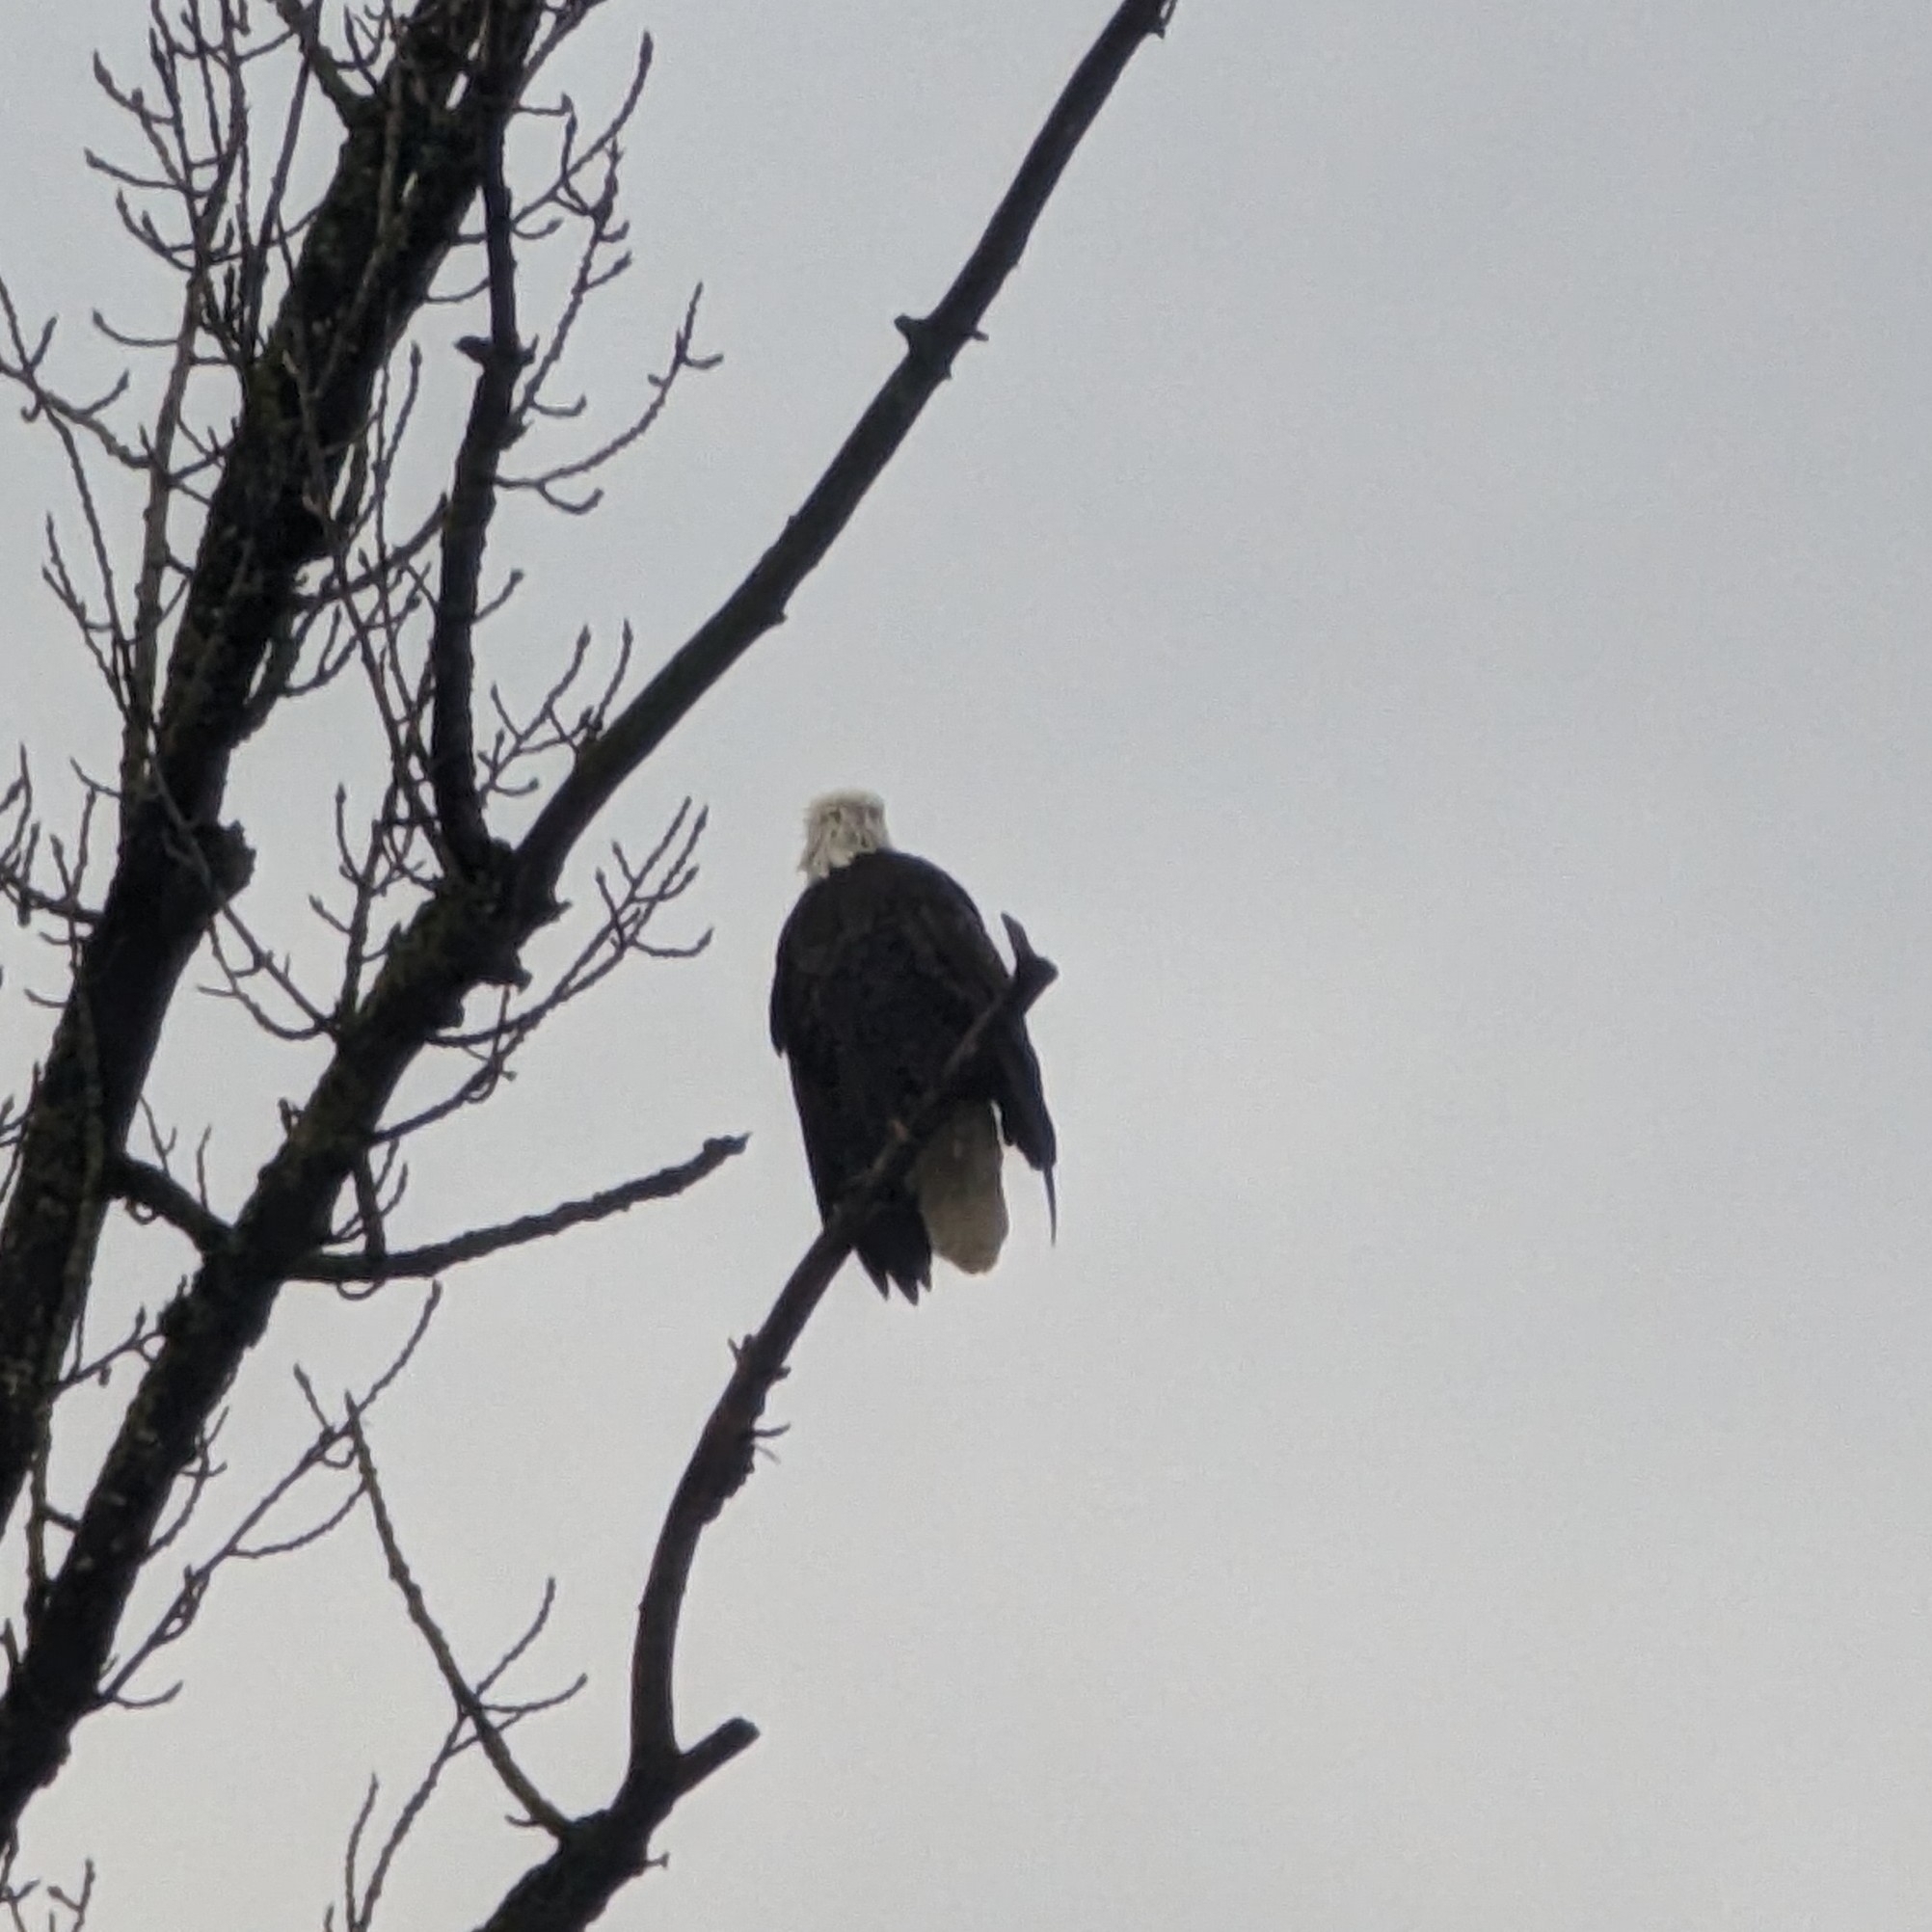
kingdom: Animalia
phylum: Chordata
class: Aves
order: Accipitriformes
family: Accipitridae
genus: Haliaeetus
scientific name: Haliaeetus leucocephalus
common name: Bald eagle
